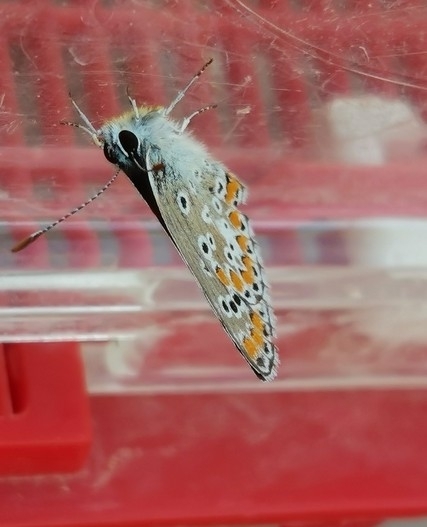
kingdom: Animalia
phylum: Arthropoda
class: Insecta
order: Lepidoptera
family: Lycaenidae
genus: Aricia
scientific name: Aricia agestis
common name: Brown argus
